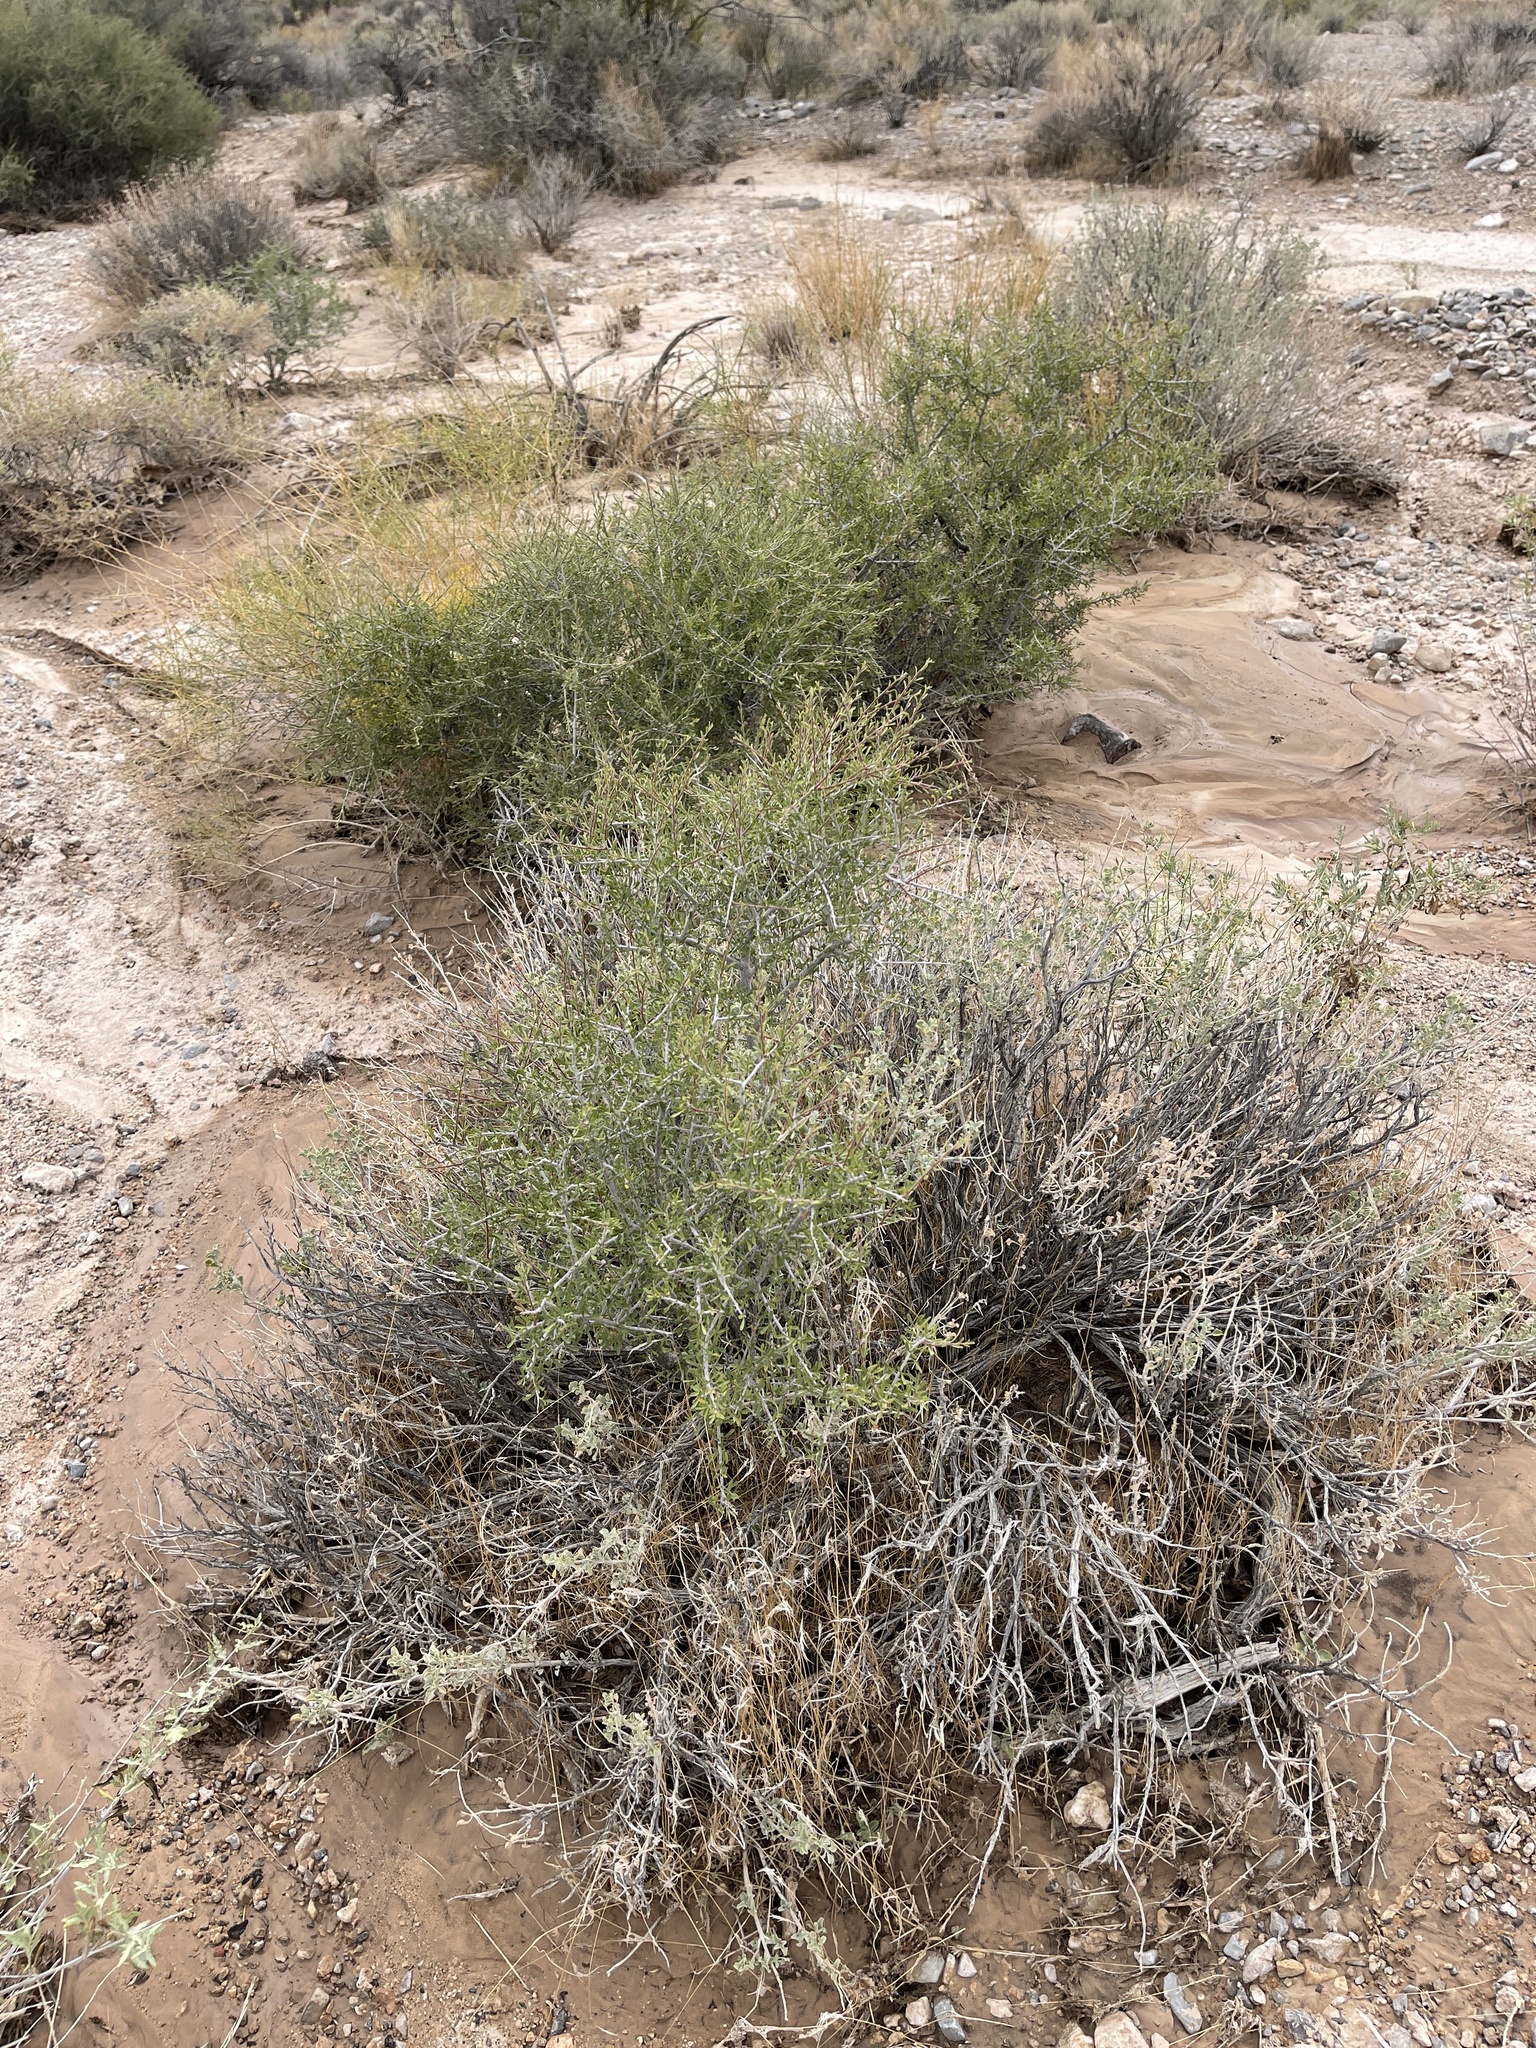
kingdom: Plantae
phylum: Tracheophyta
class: Magnoliopsida
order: Rosales
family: Rosaceae
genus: Prunus
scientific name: Prunus fasciculata
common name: Desert almond
